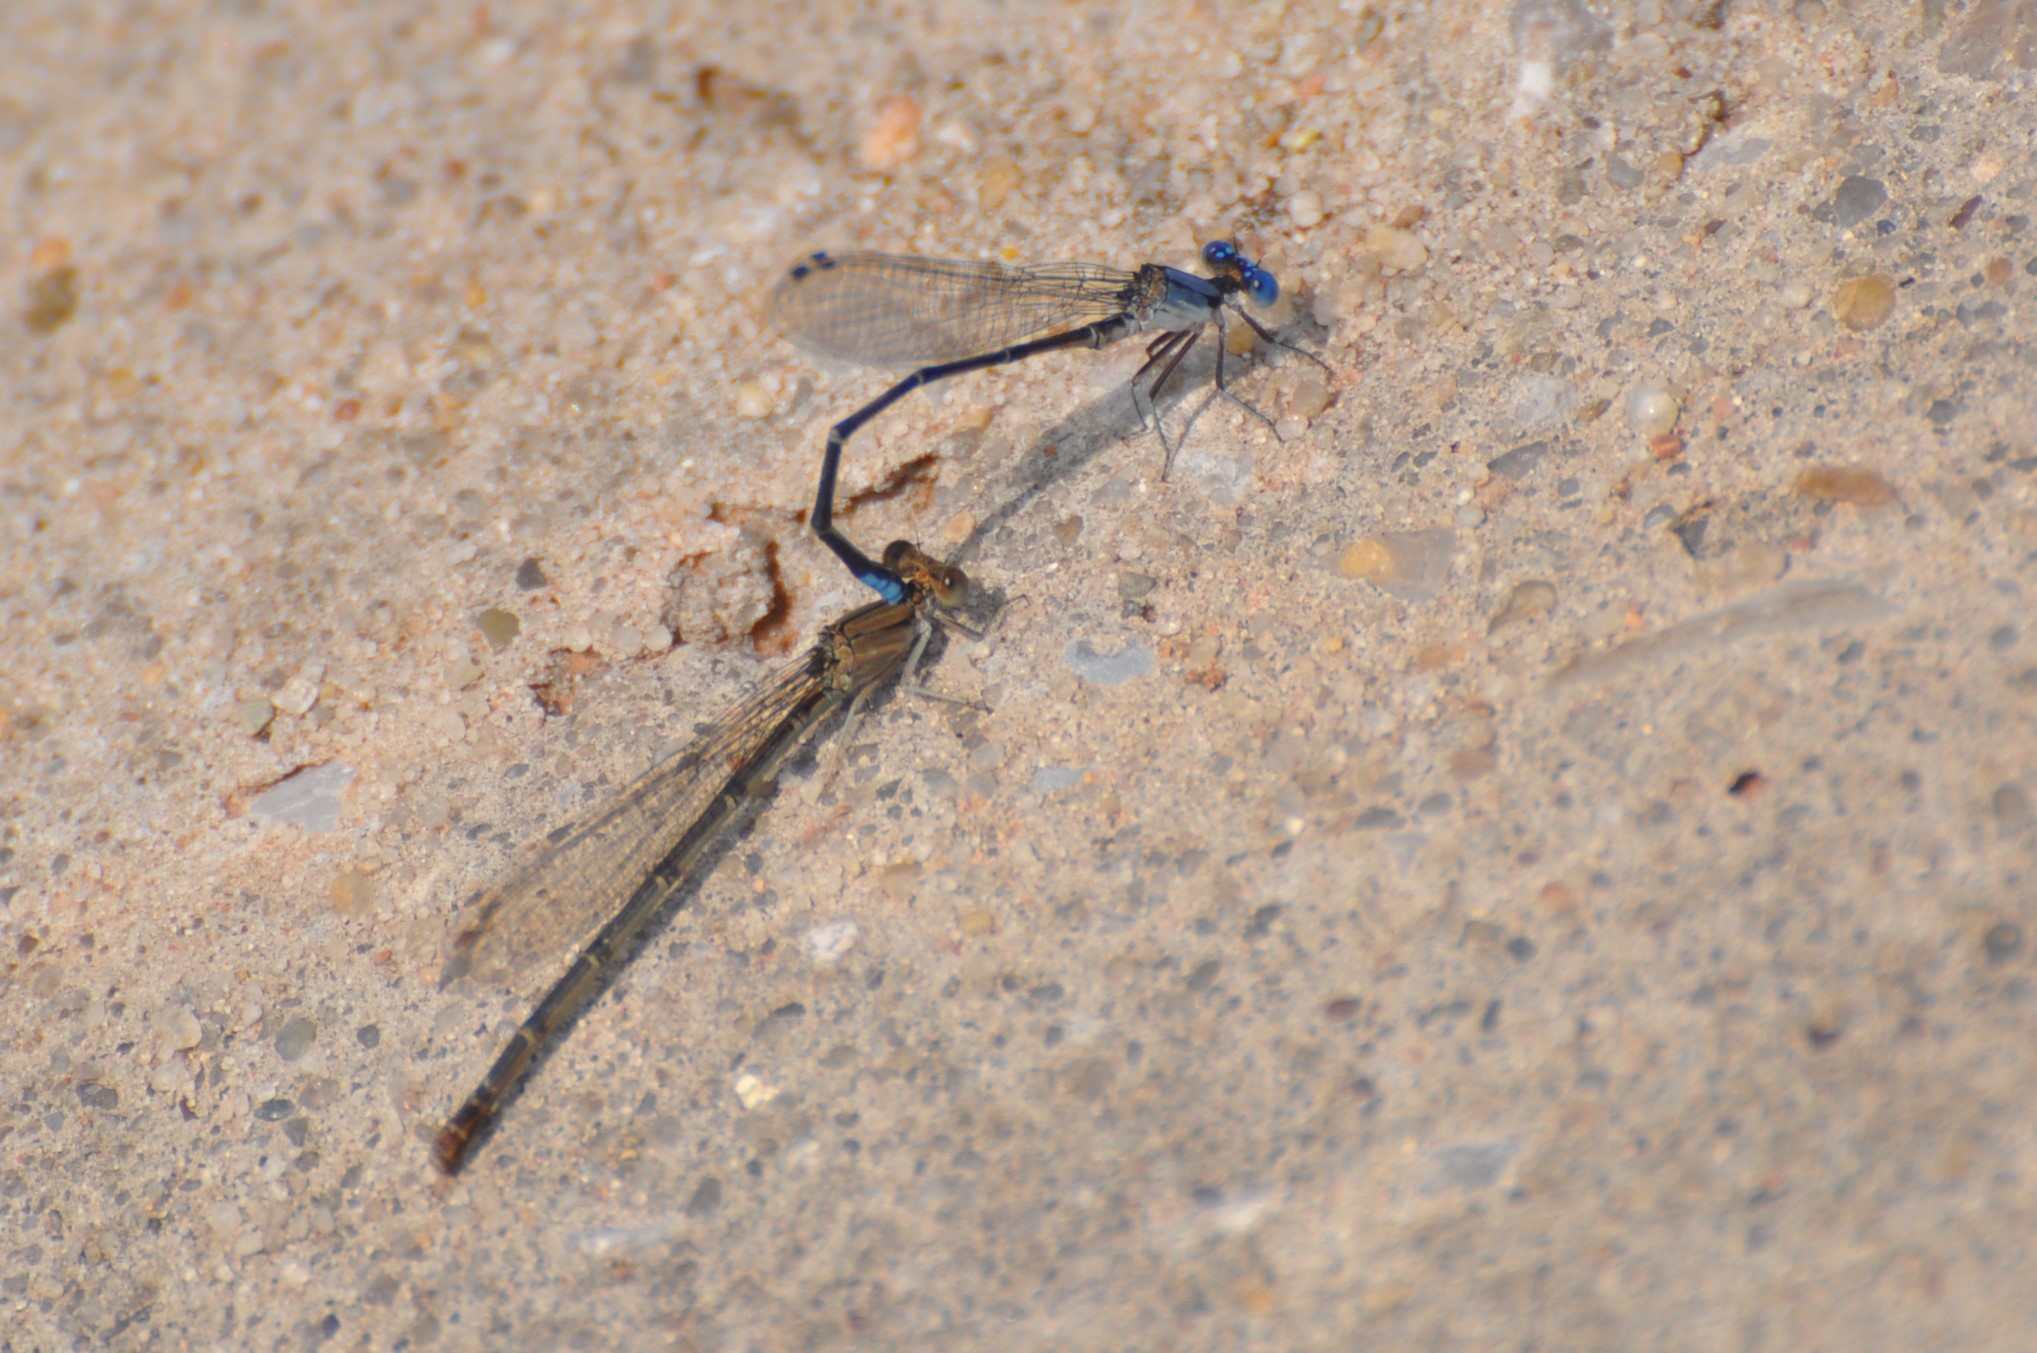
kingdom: Animalia
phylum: Arthropoda
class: Insecta
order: Odonata
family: Coenagrionidae
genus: Argia
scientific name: Argia apicalis
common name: Blue-fronted dancer
